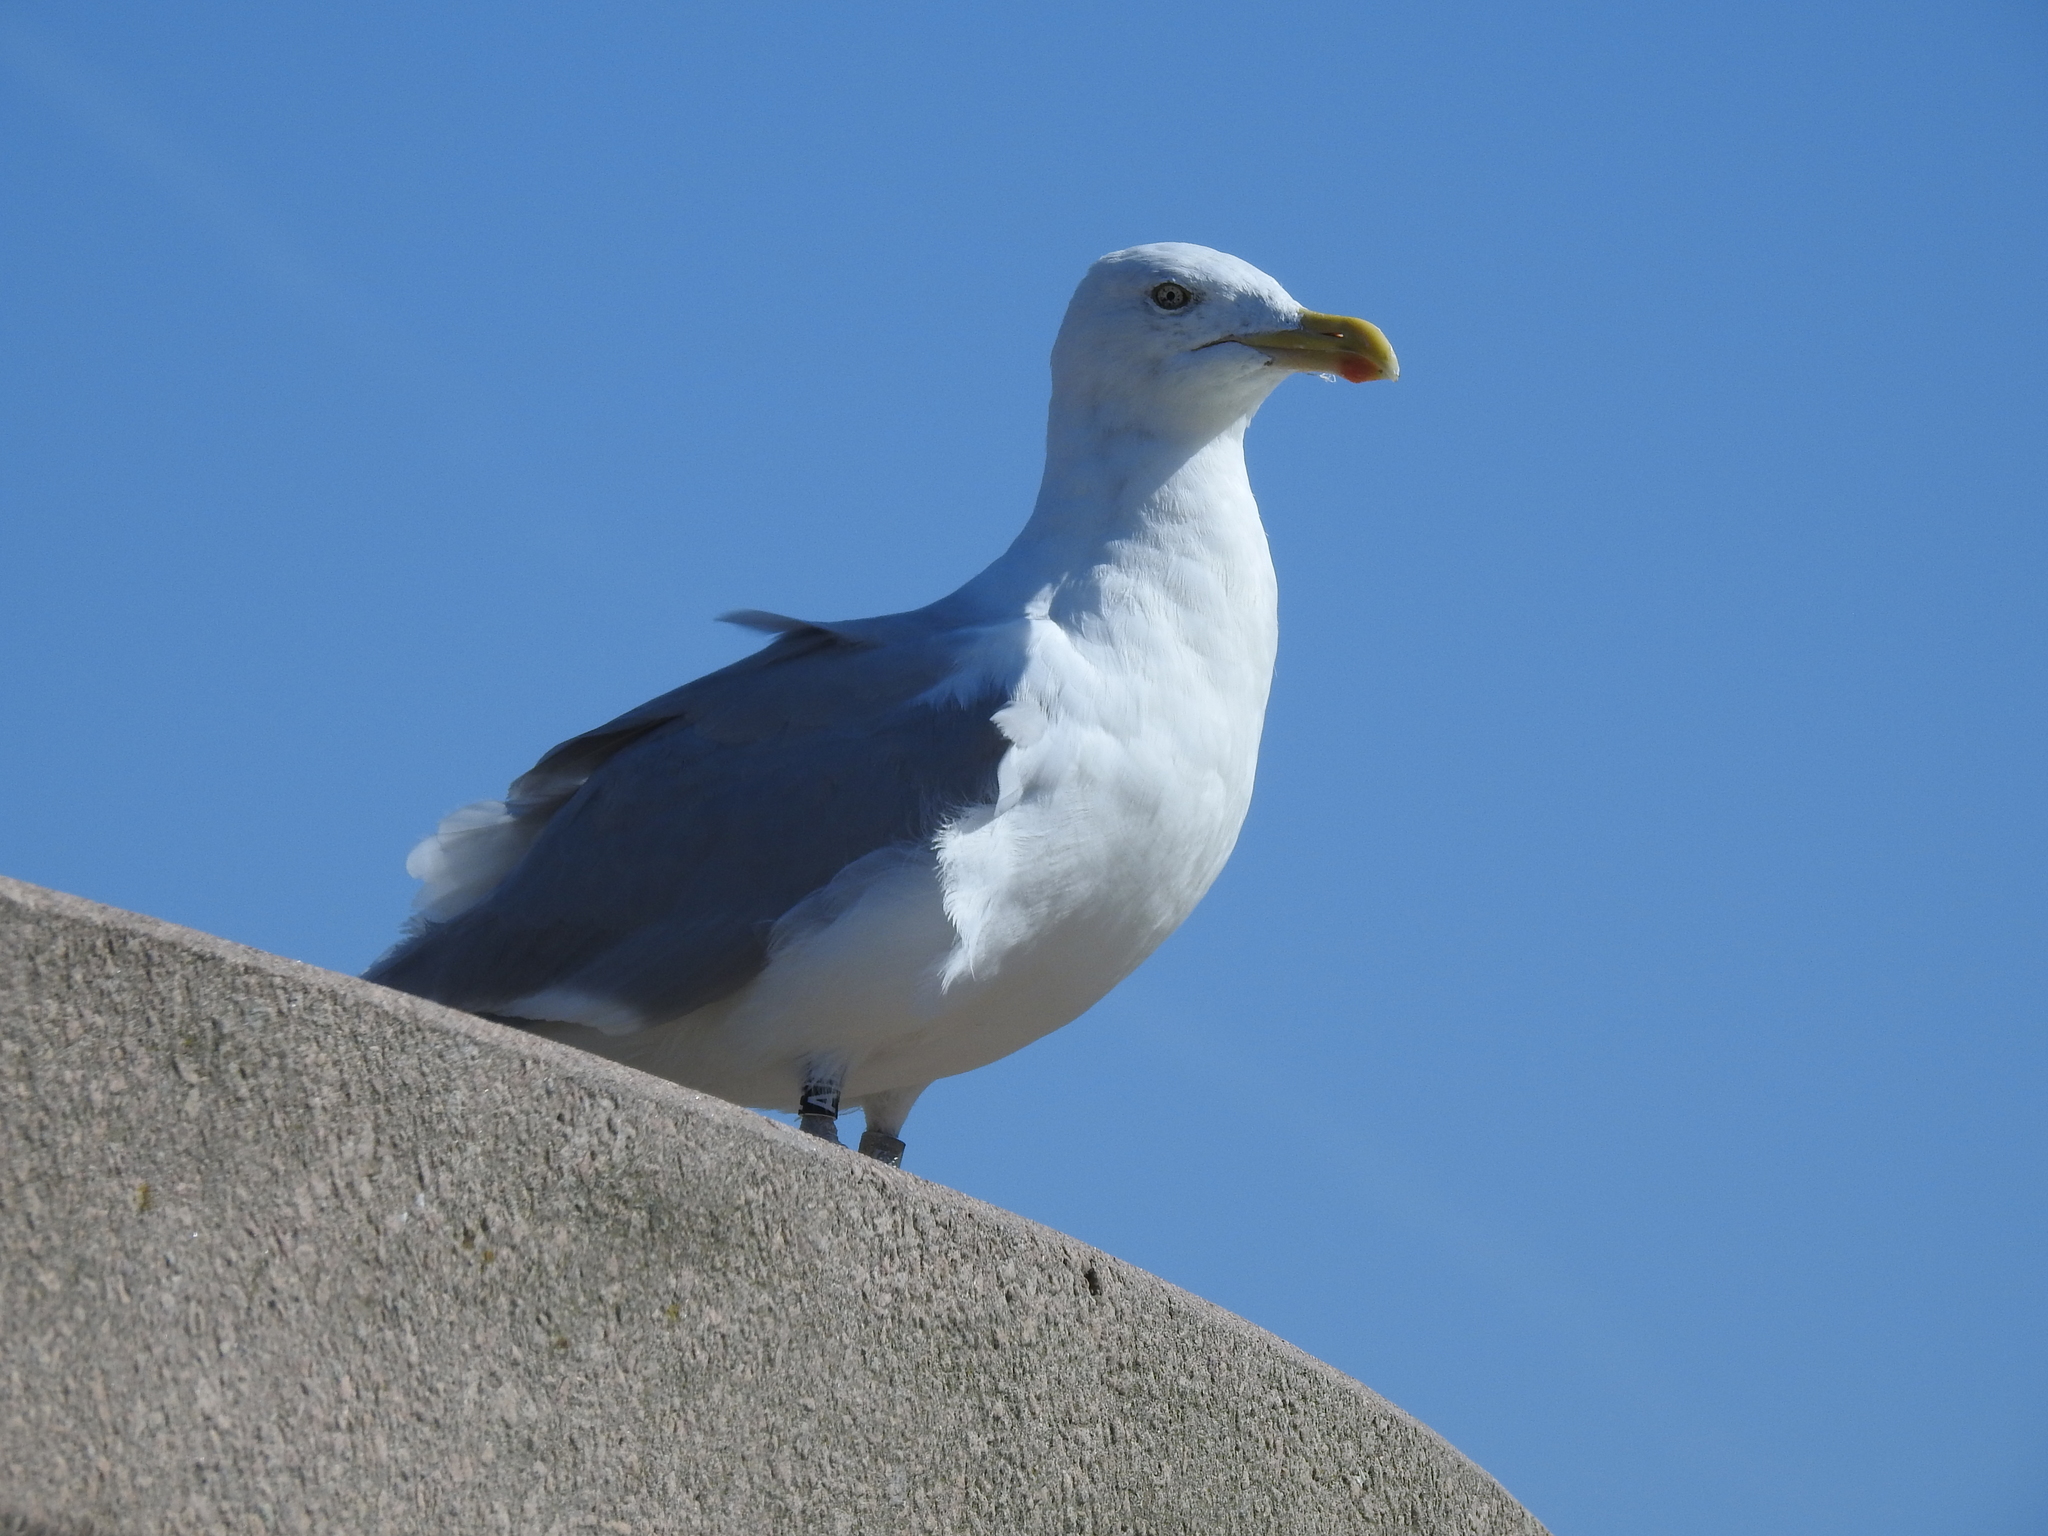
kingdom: Animalia
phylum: Chordata
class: Aves
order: Charadriiformes
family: Laridae
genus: Larus
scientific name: Larus argentatus
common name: Herring gull
